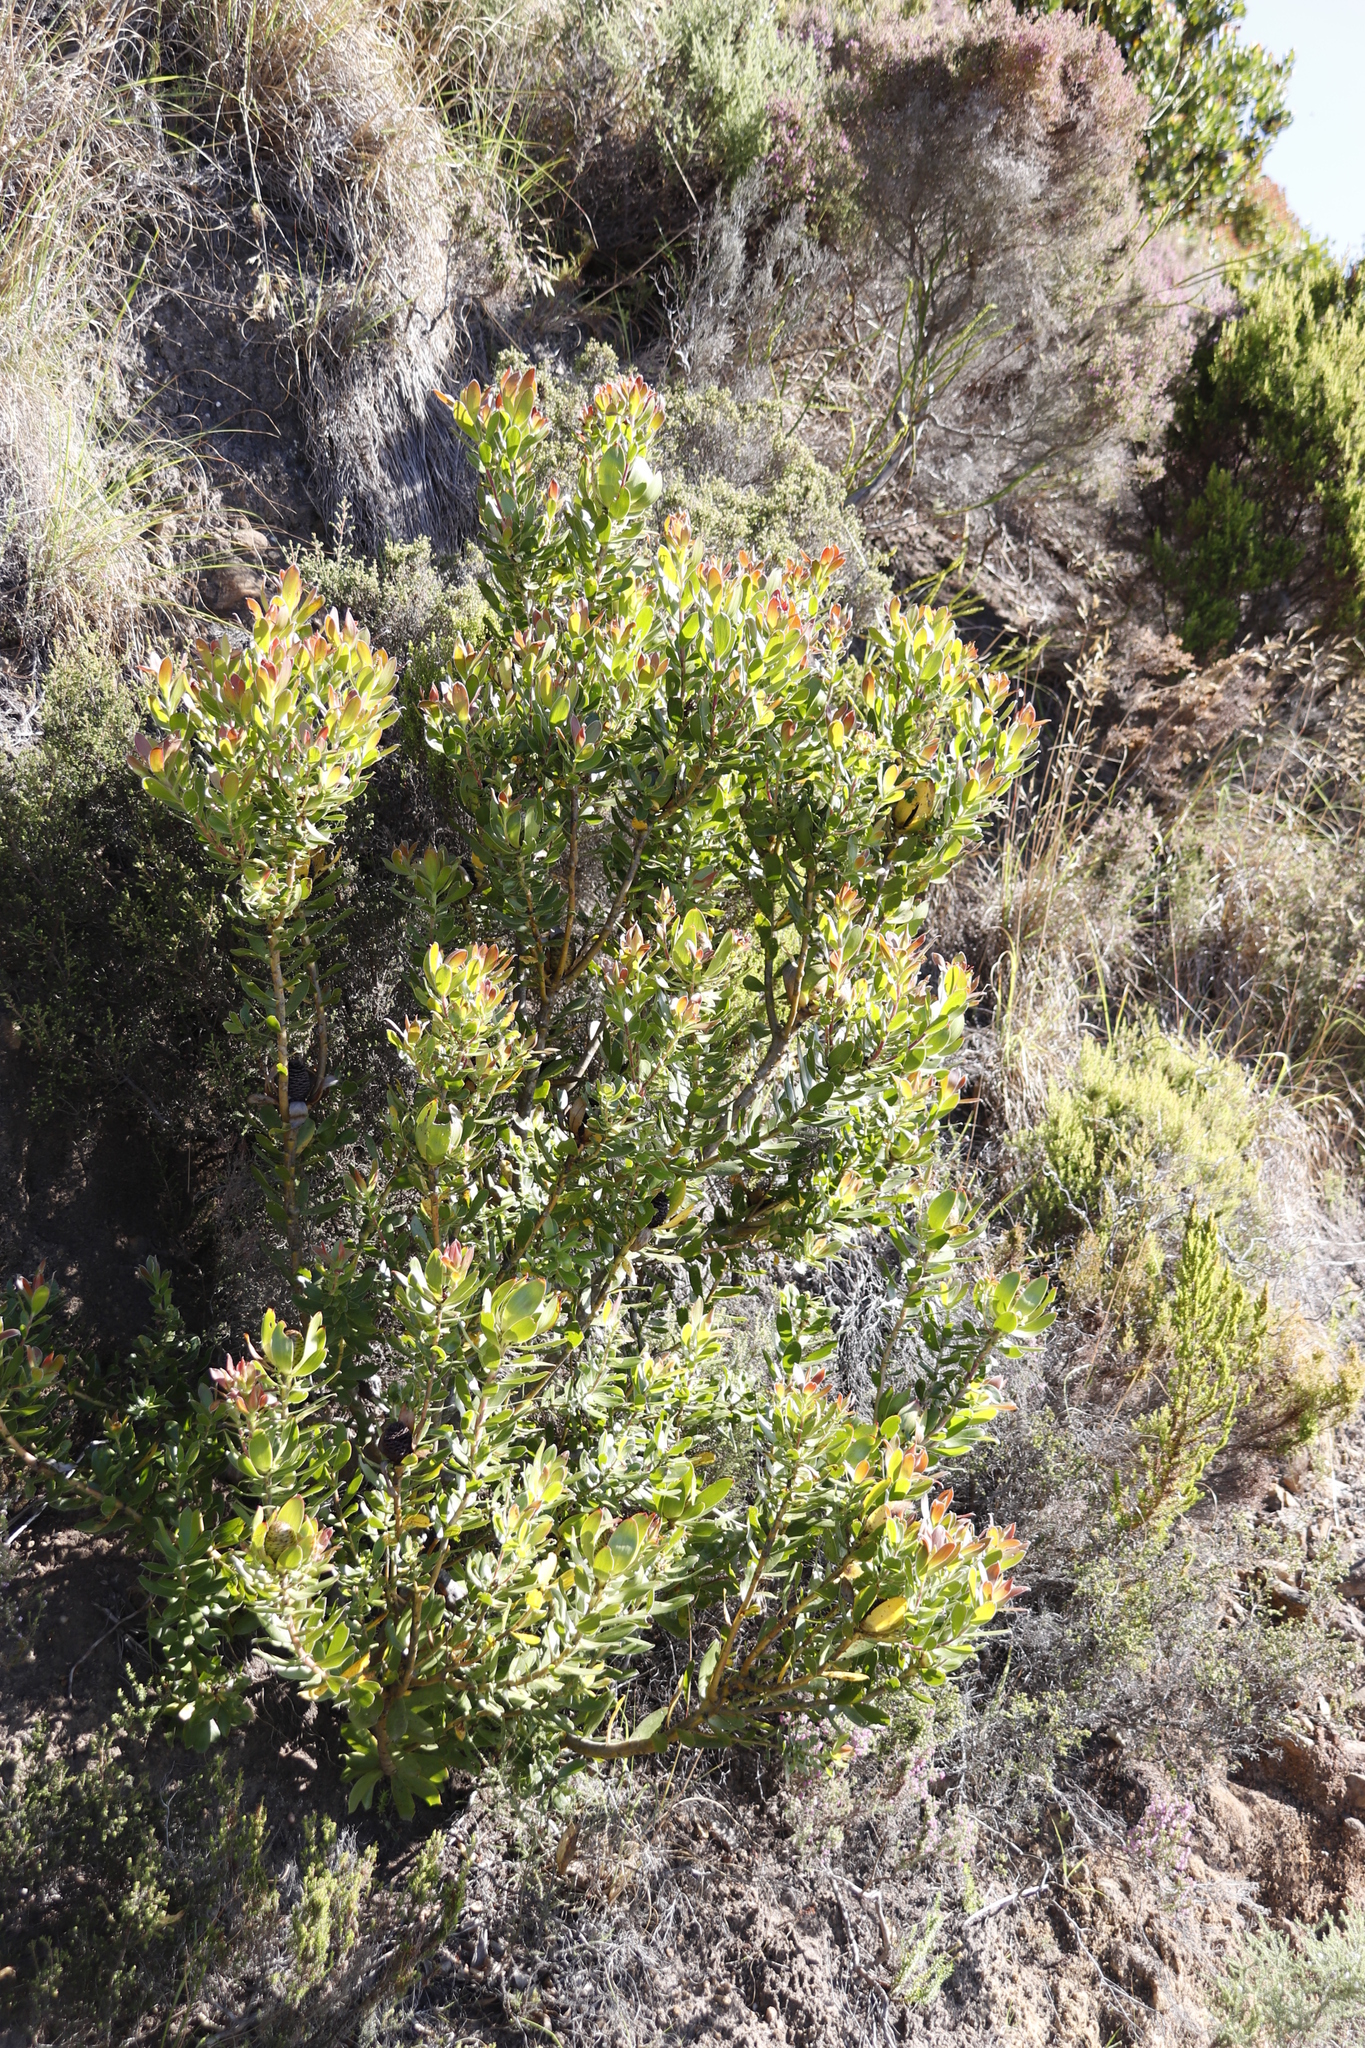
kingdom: Plantae
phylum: Tracheophyta
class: Magnoliopsida
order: Proteales
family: Proteaceae
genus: Leucadendron
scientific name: Leucadendron strobilinum
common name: Mountain rose
